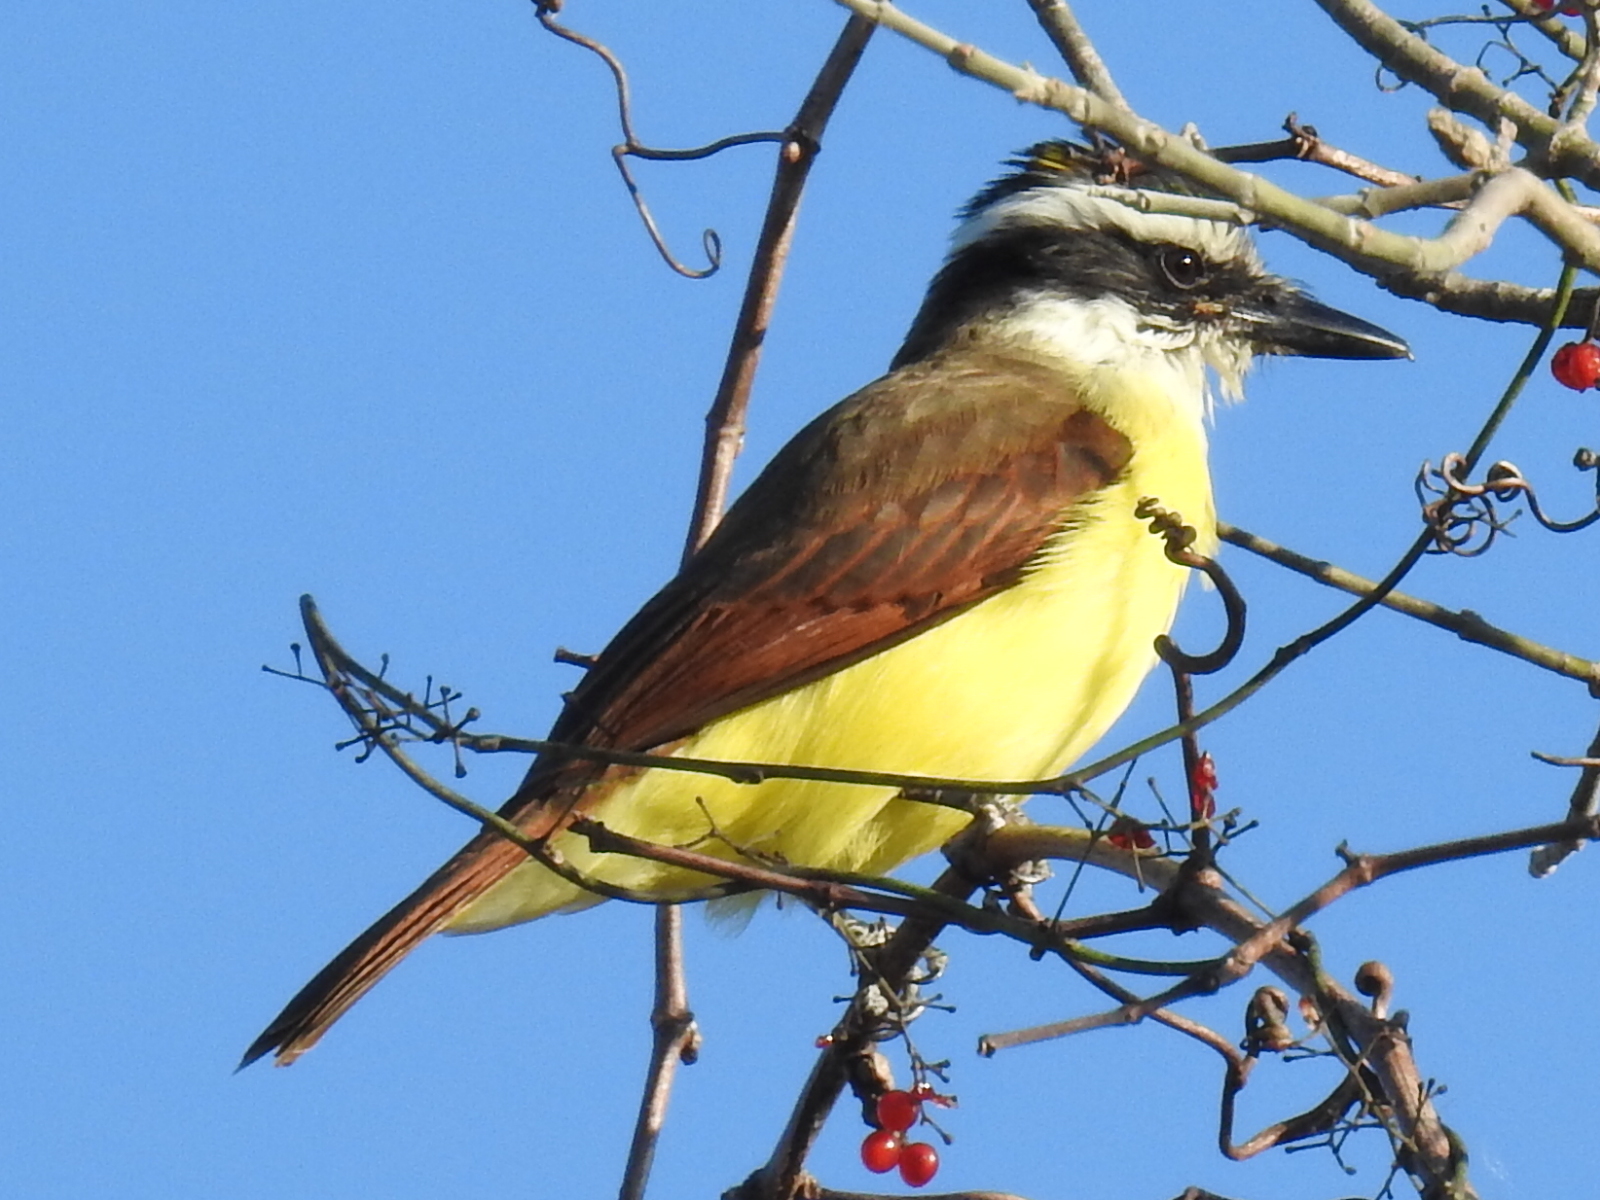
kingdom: Animalia
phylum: Chordata
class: Aves
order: Passeriformes
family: Tyrannidae
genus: Pitangus
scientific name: Pitangus sulphuratus
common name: Great kiskadee
